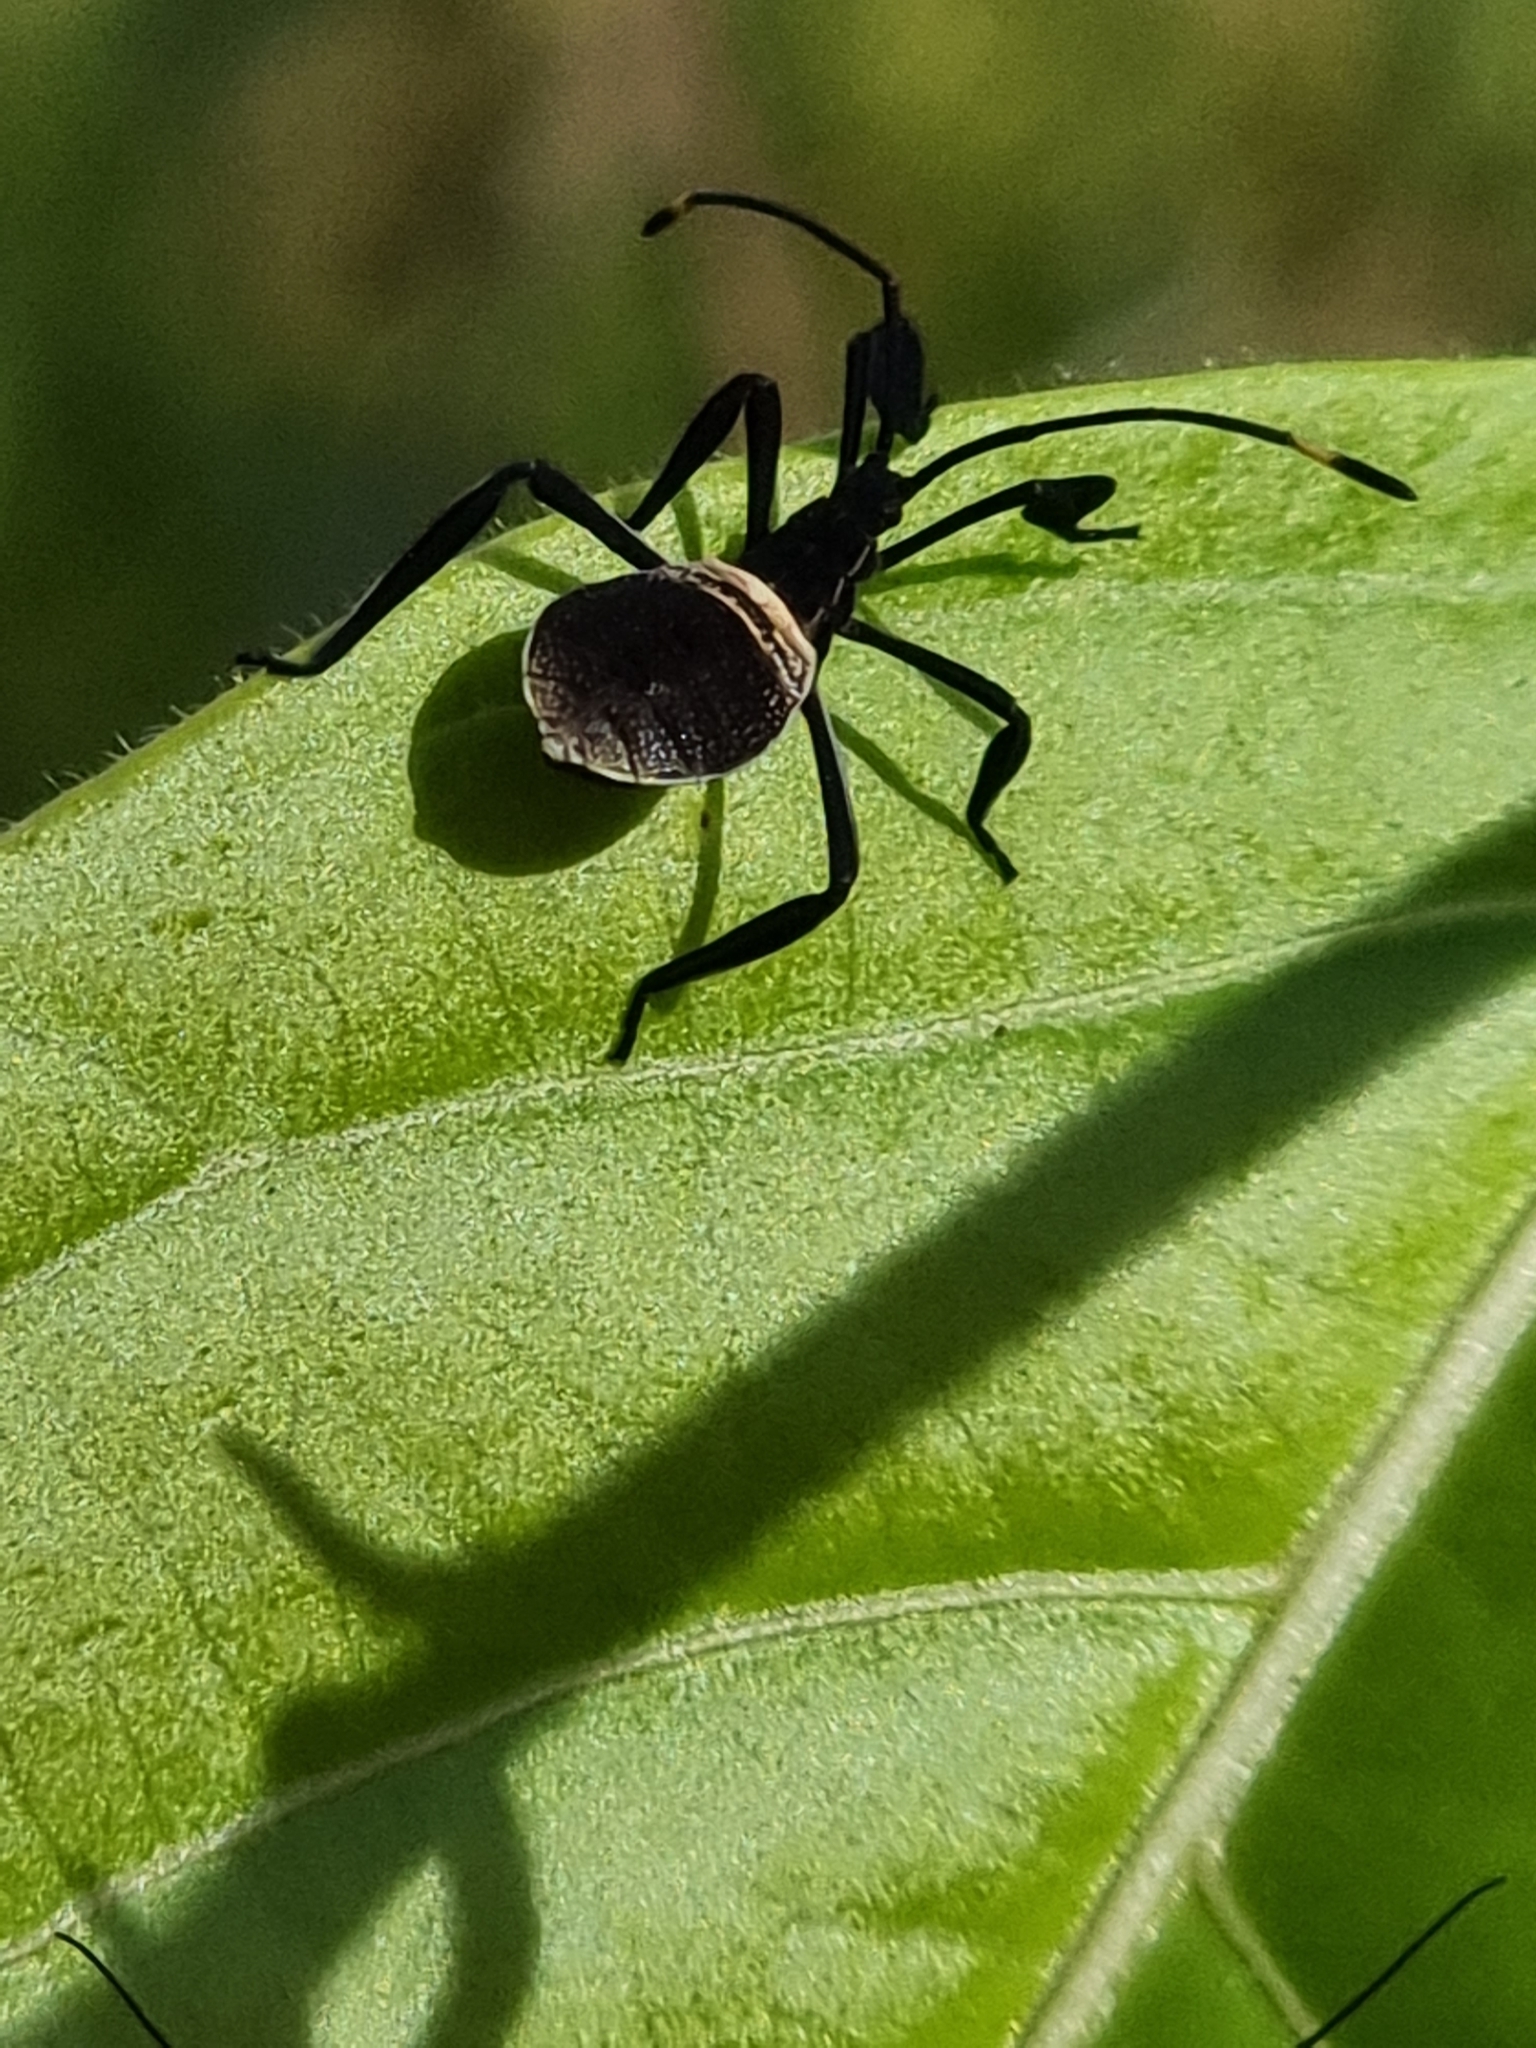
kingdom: Animalia
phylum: Arthropoda
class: Insecta
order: Hemiptera
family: Coreidae
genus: Mictis
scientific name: Mictis profana
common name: Crusader bug
